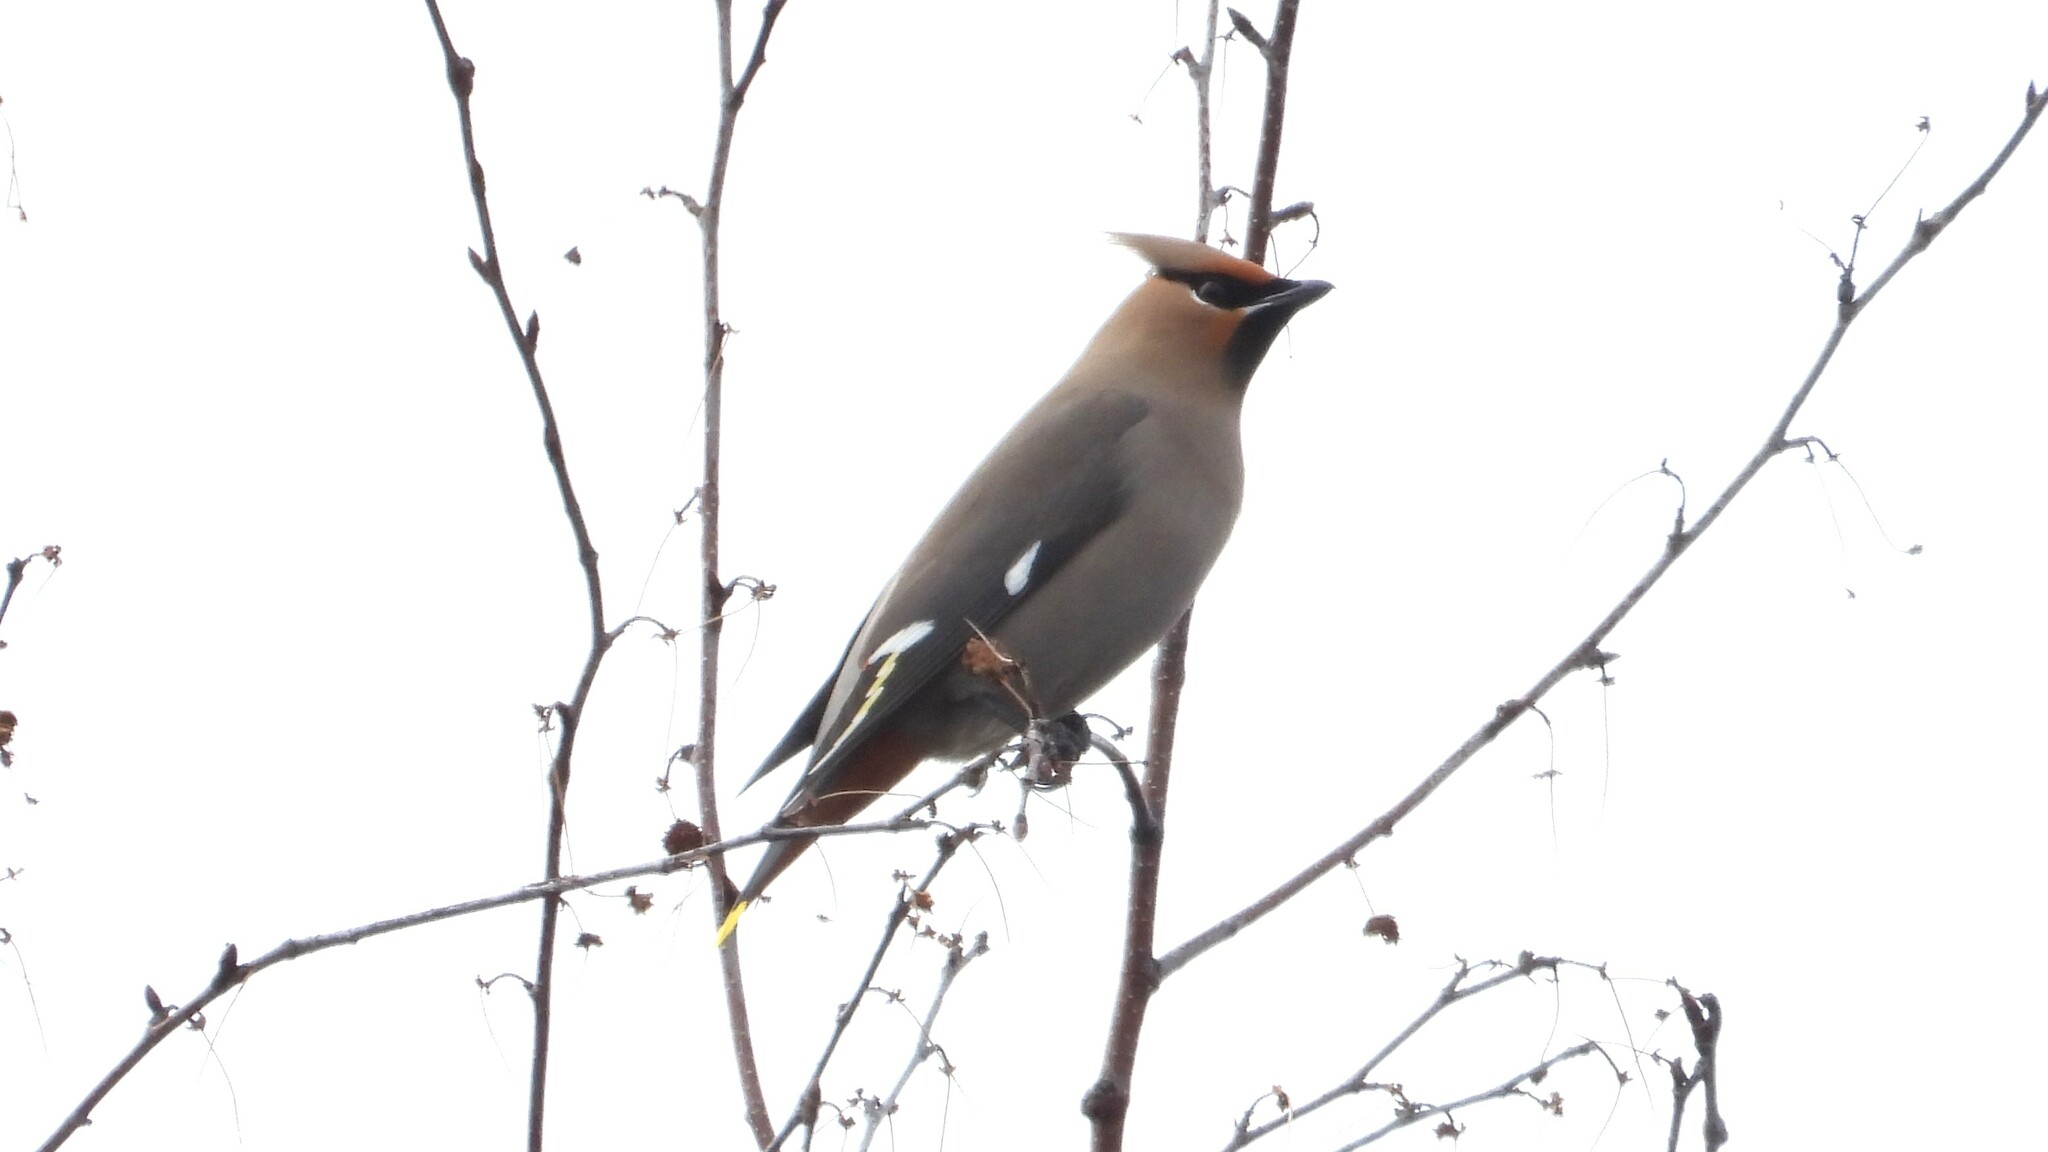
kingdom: Animalia
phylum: Chordata
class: Aves
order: Passeriformes
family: Bombycillidae
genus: Bombycilla
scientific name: Bombycilla garrulus
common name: Bohemian waxwing
